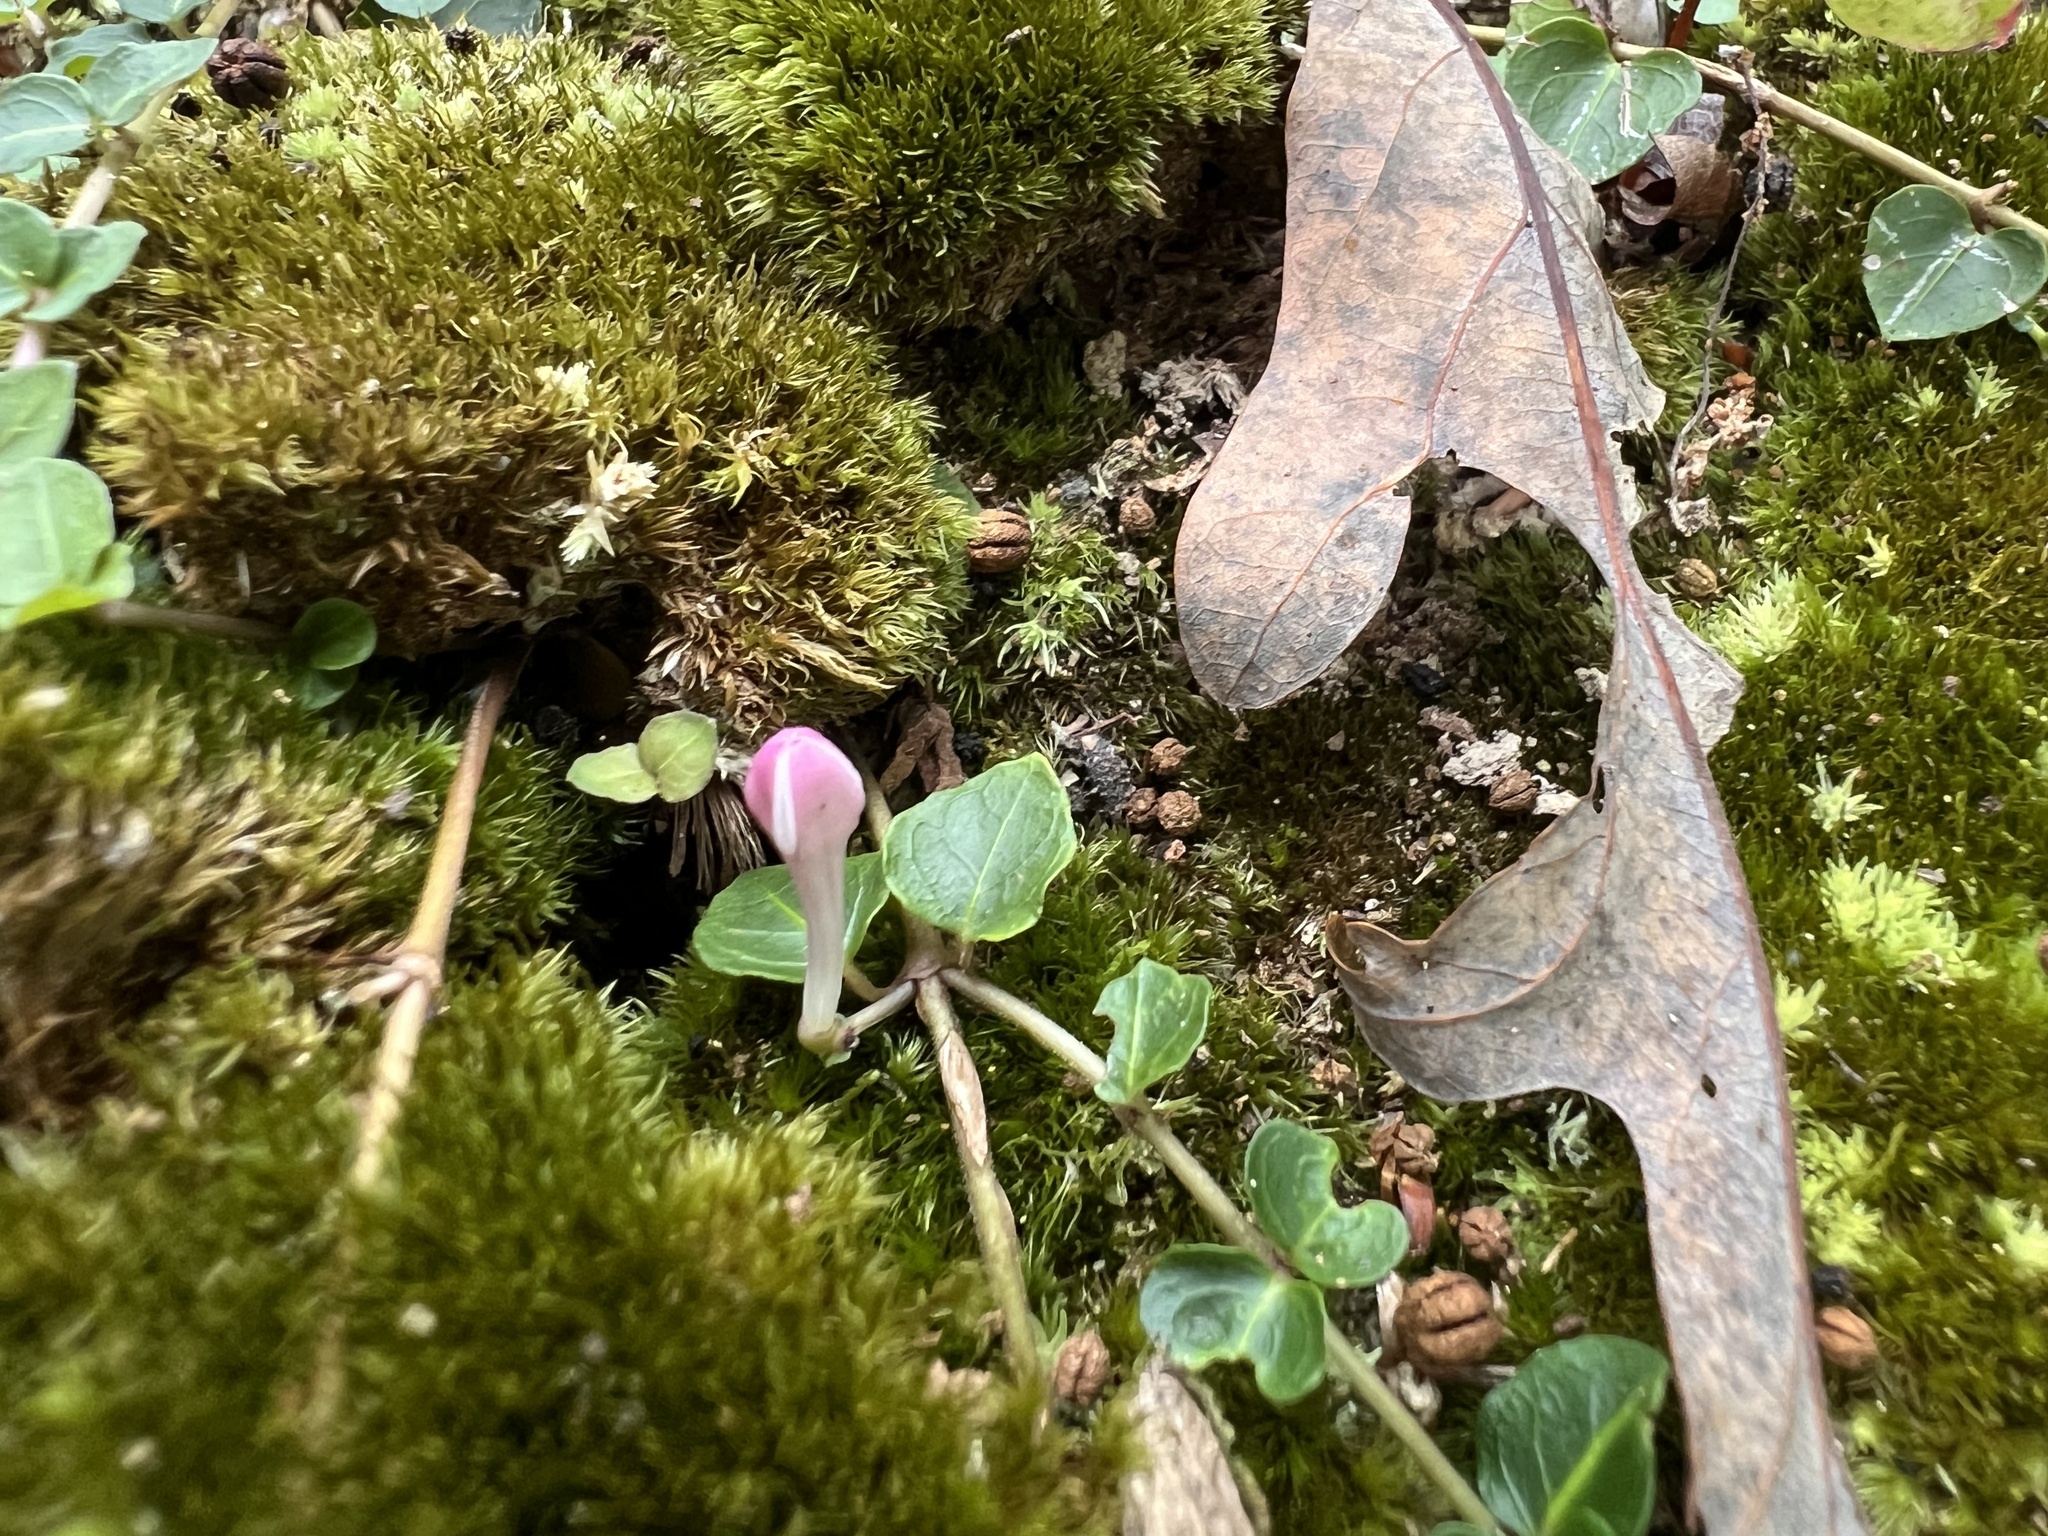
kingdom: Plantae
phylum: Tracheophyta
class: Magnoliopsida
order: Gentianales
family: Rubiaceae
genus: Mitchella
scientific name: Mitchella repens
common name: Partridge-berry
